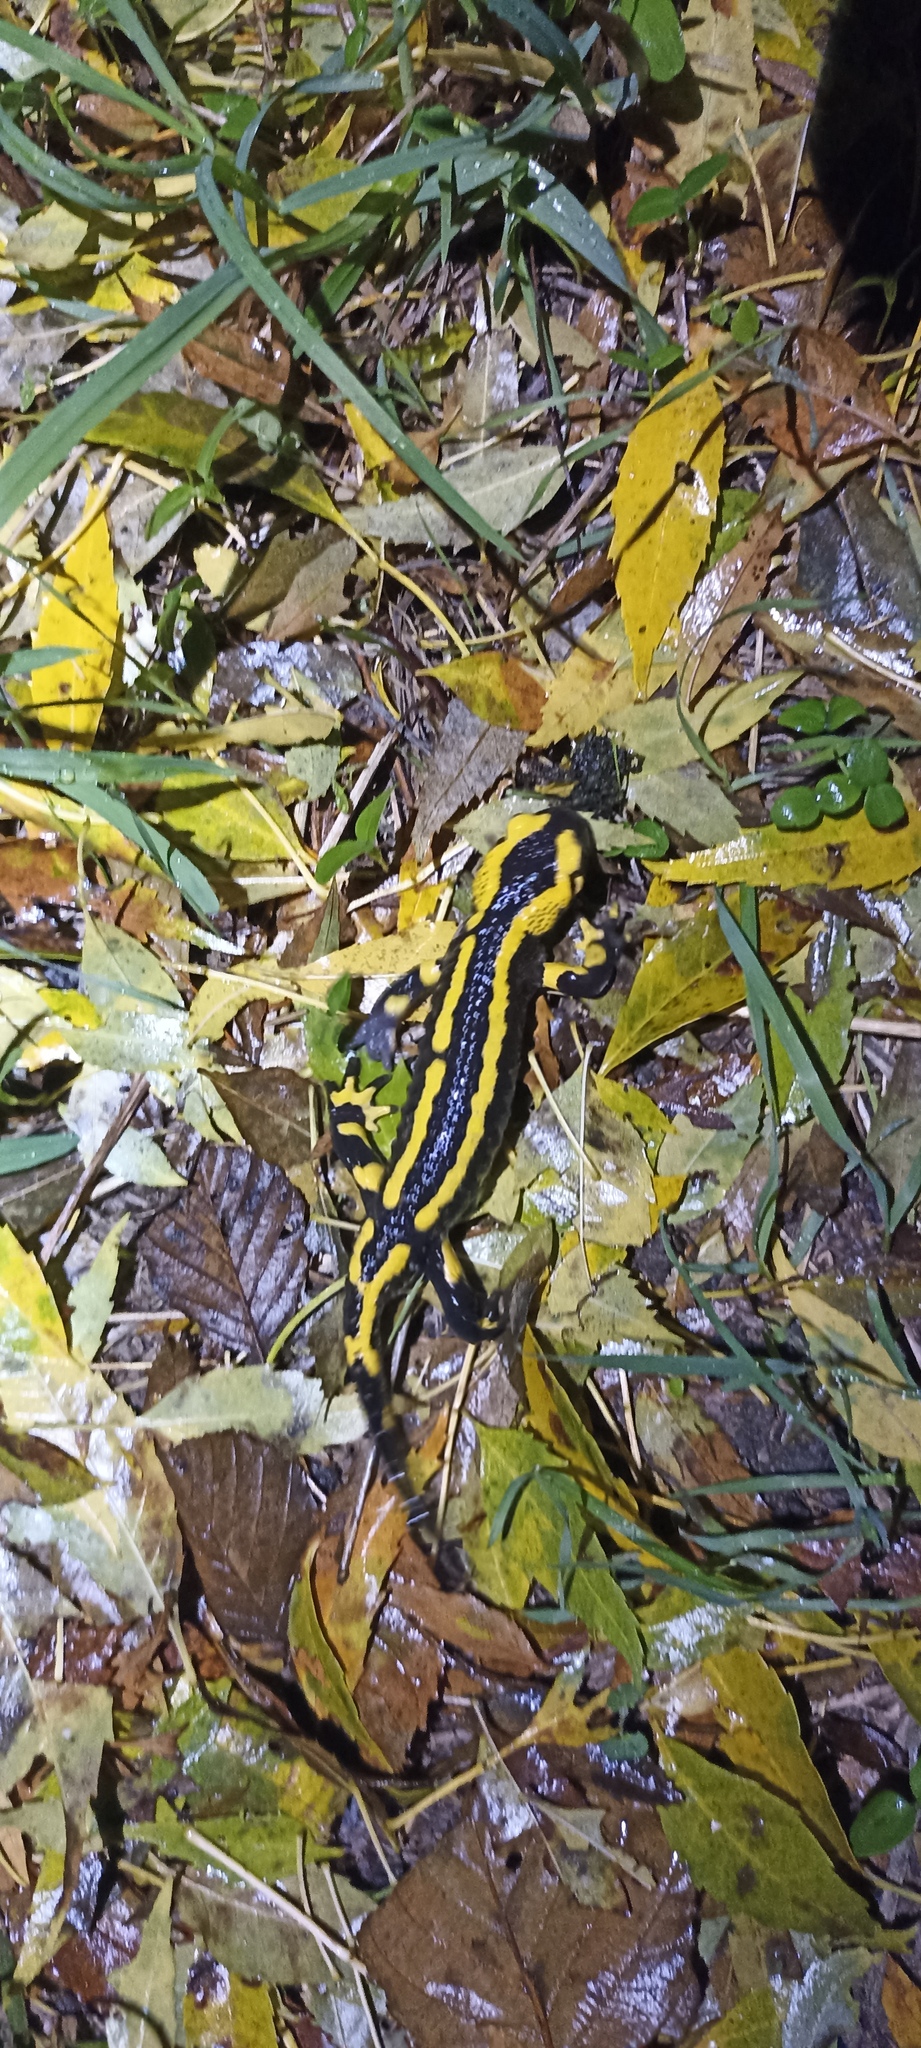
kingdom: Animalia
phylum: Chordata
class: Amphibia
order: Caudata
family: Salamandridae
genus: Salamandra
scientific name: Salamandra salamandra
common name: Fire salamander
